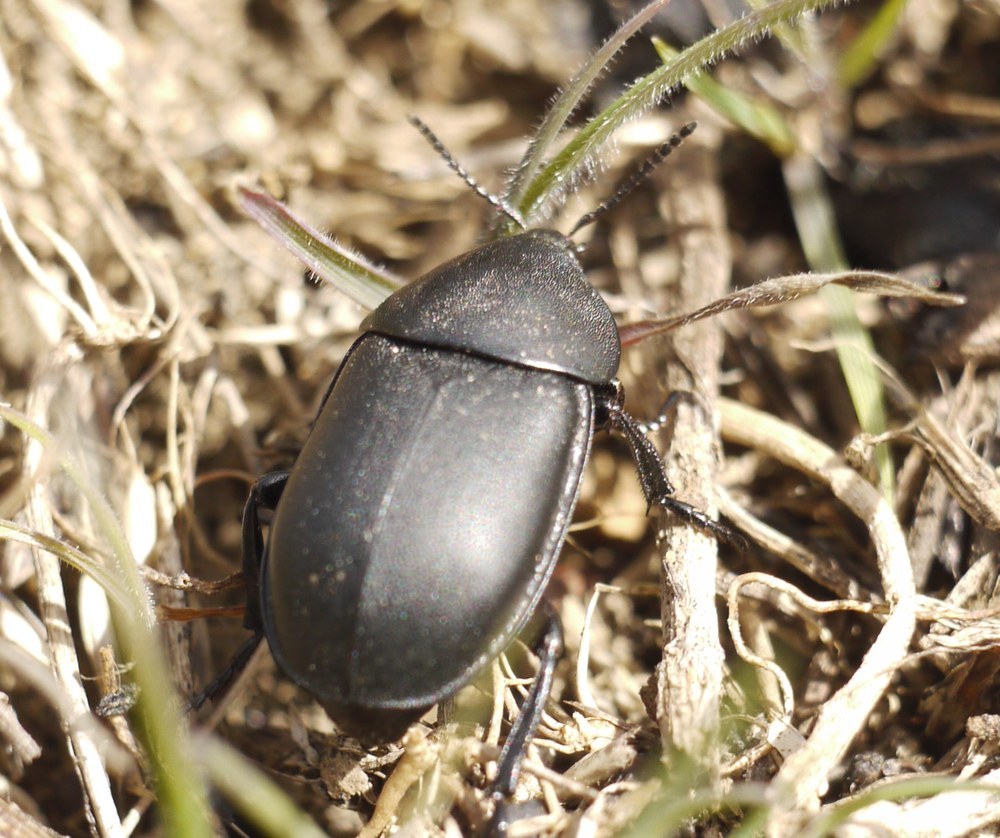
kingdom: Animalia
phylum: Arthropoda
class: Insecta
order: Coleoptera
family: Staphylinidae
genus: Silpha
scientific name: Silpha laevigata
